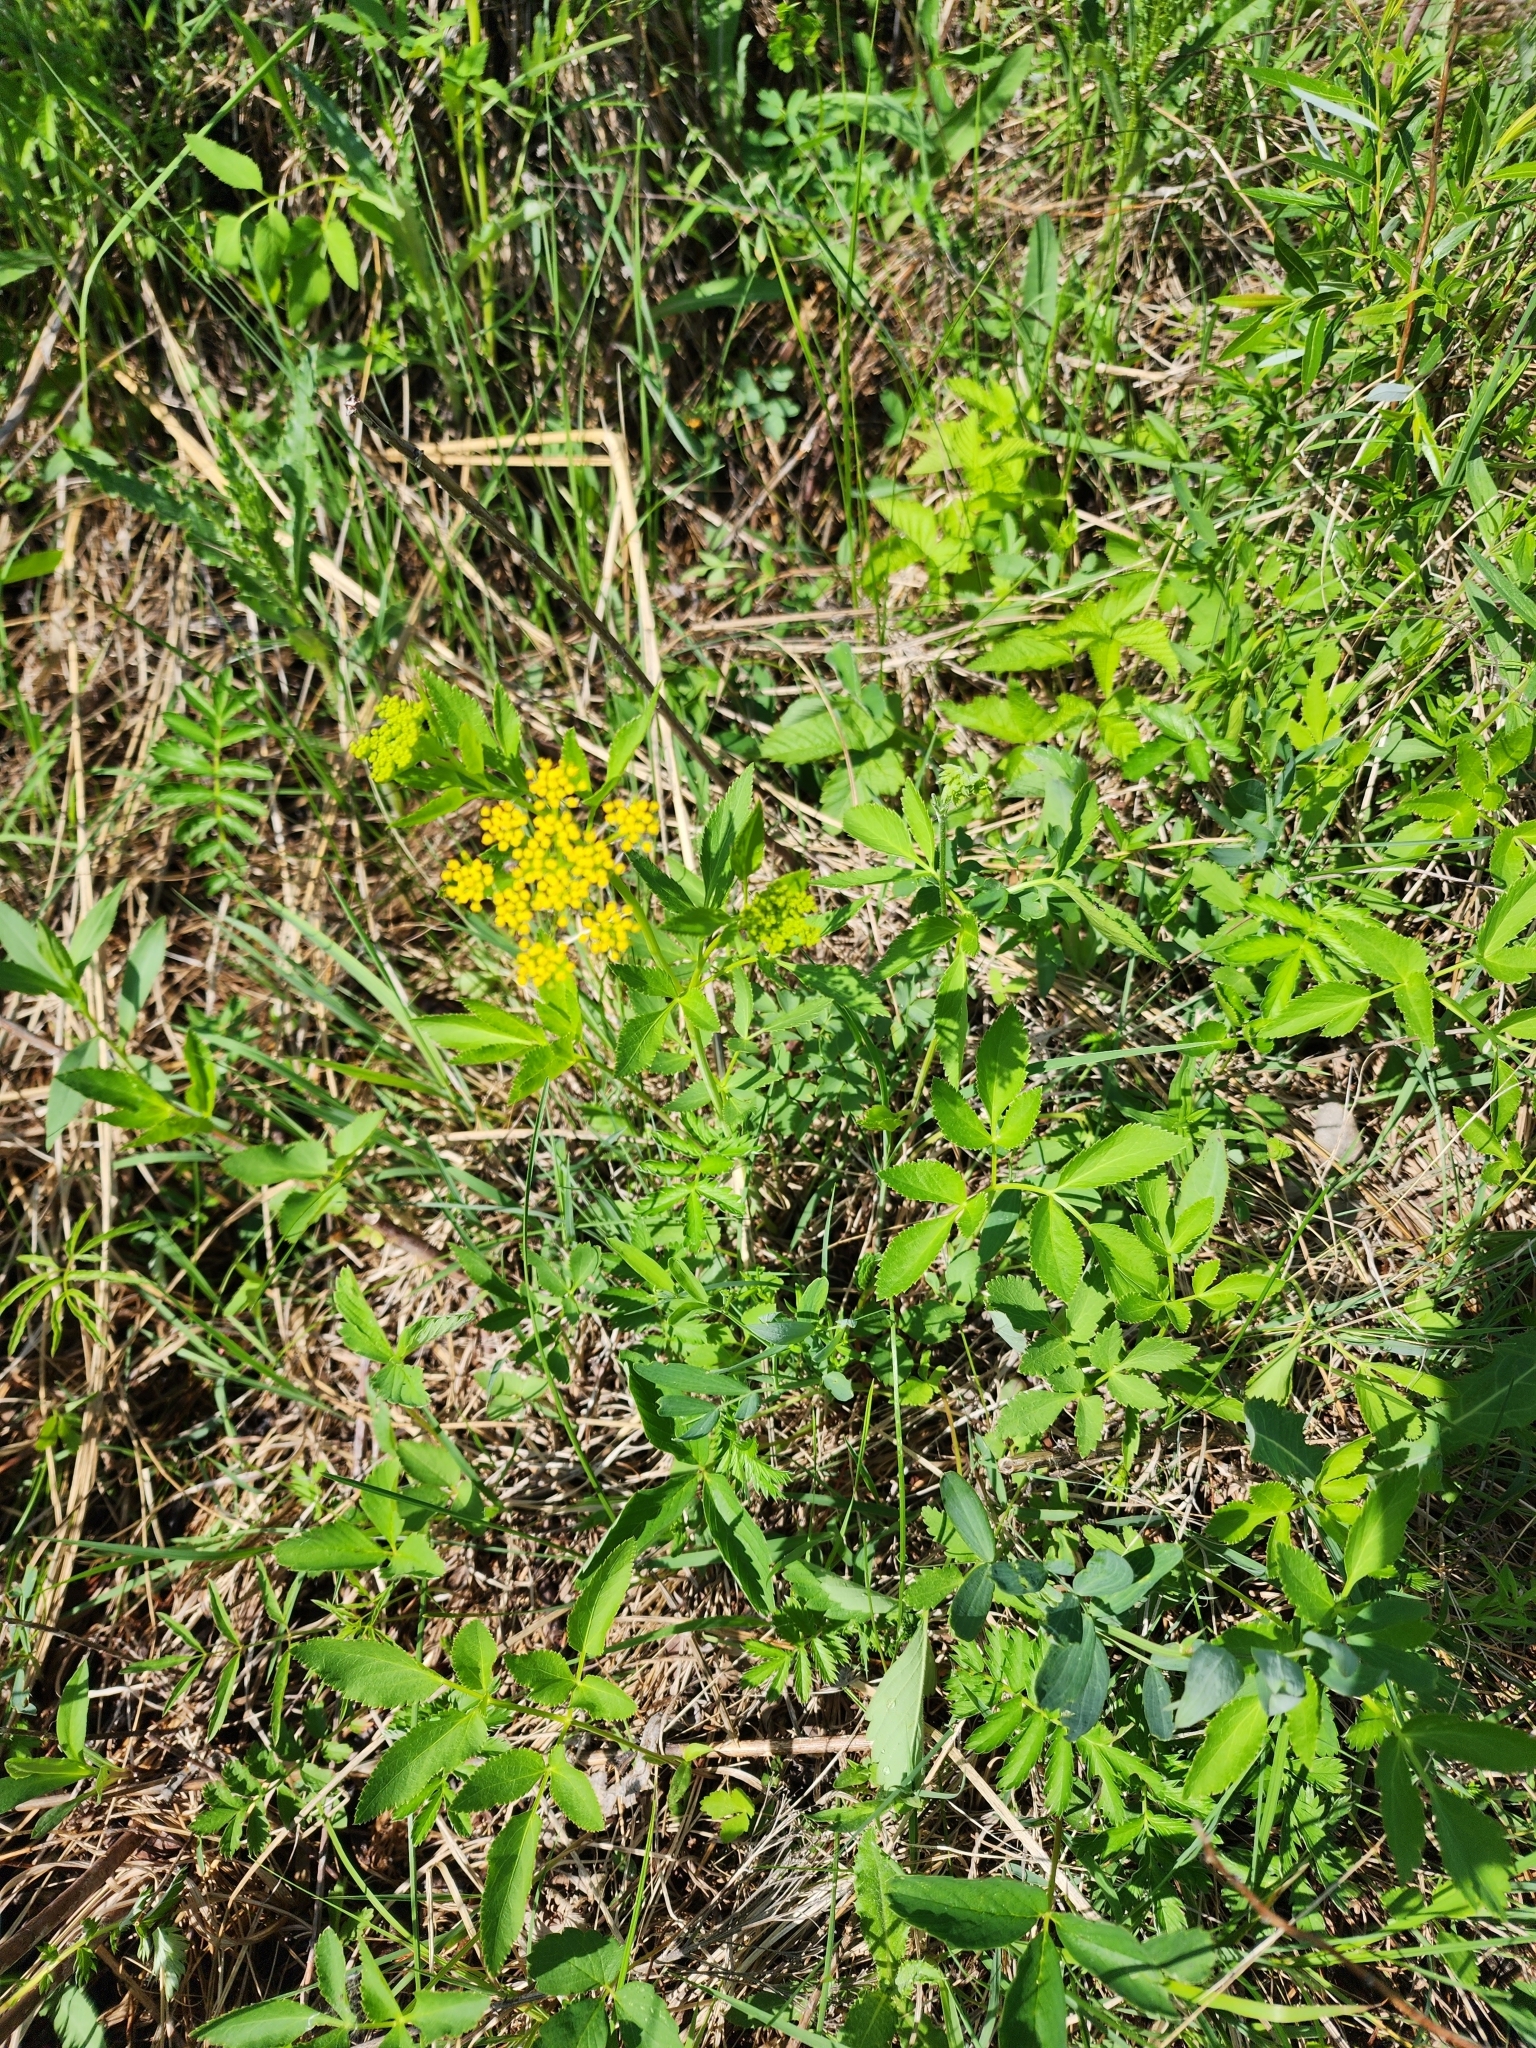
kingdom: Plantae
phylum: Tracheophyta
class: Magnoliopsida
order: Apiales
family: Apiaceae
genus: Zizia
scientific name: Zizia aurea
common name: Golden alexanders
